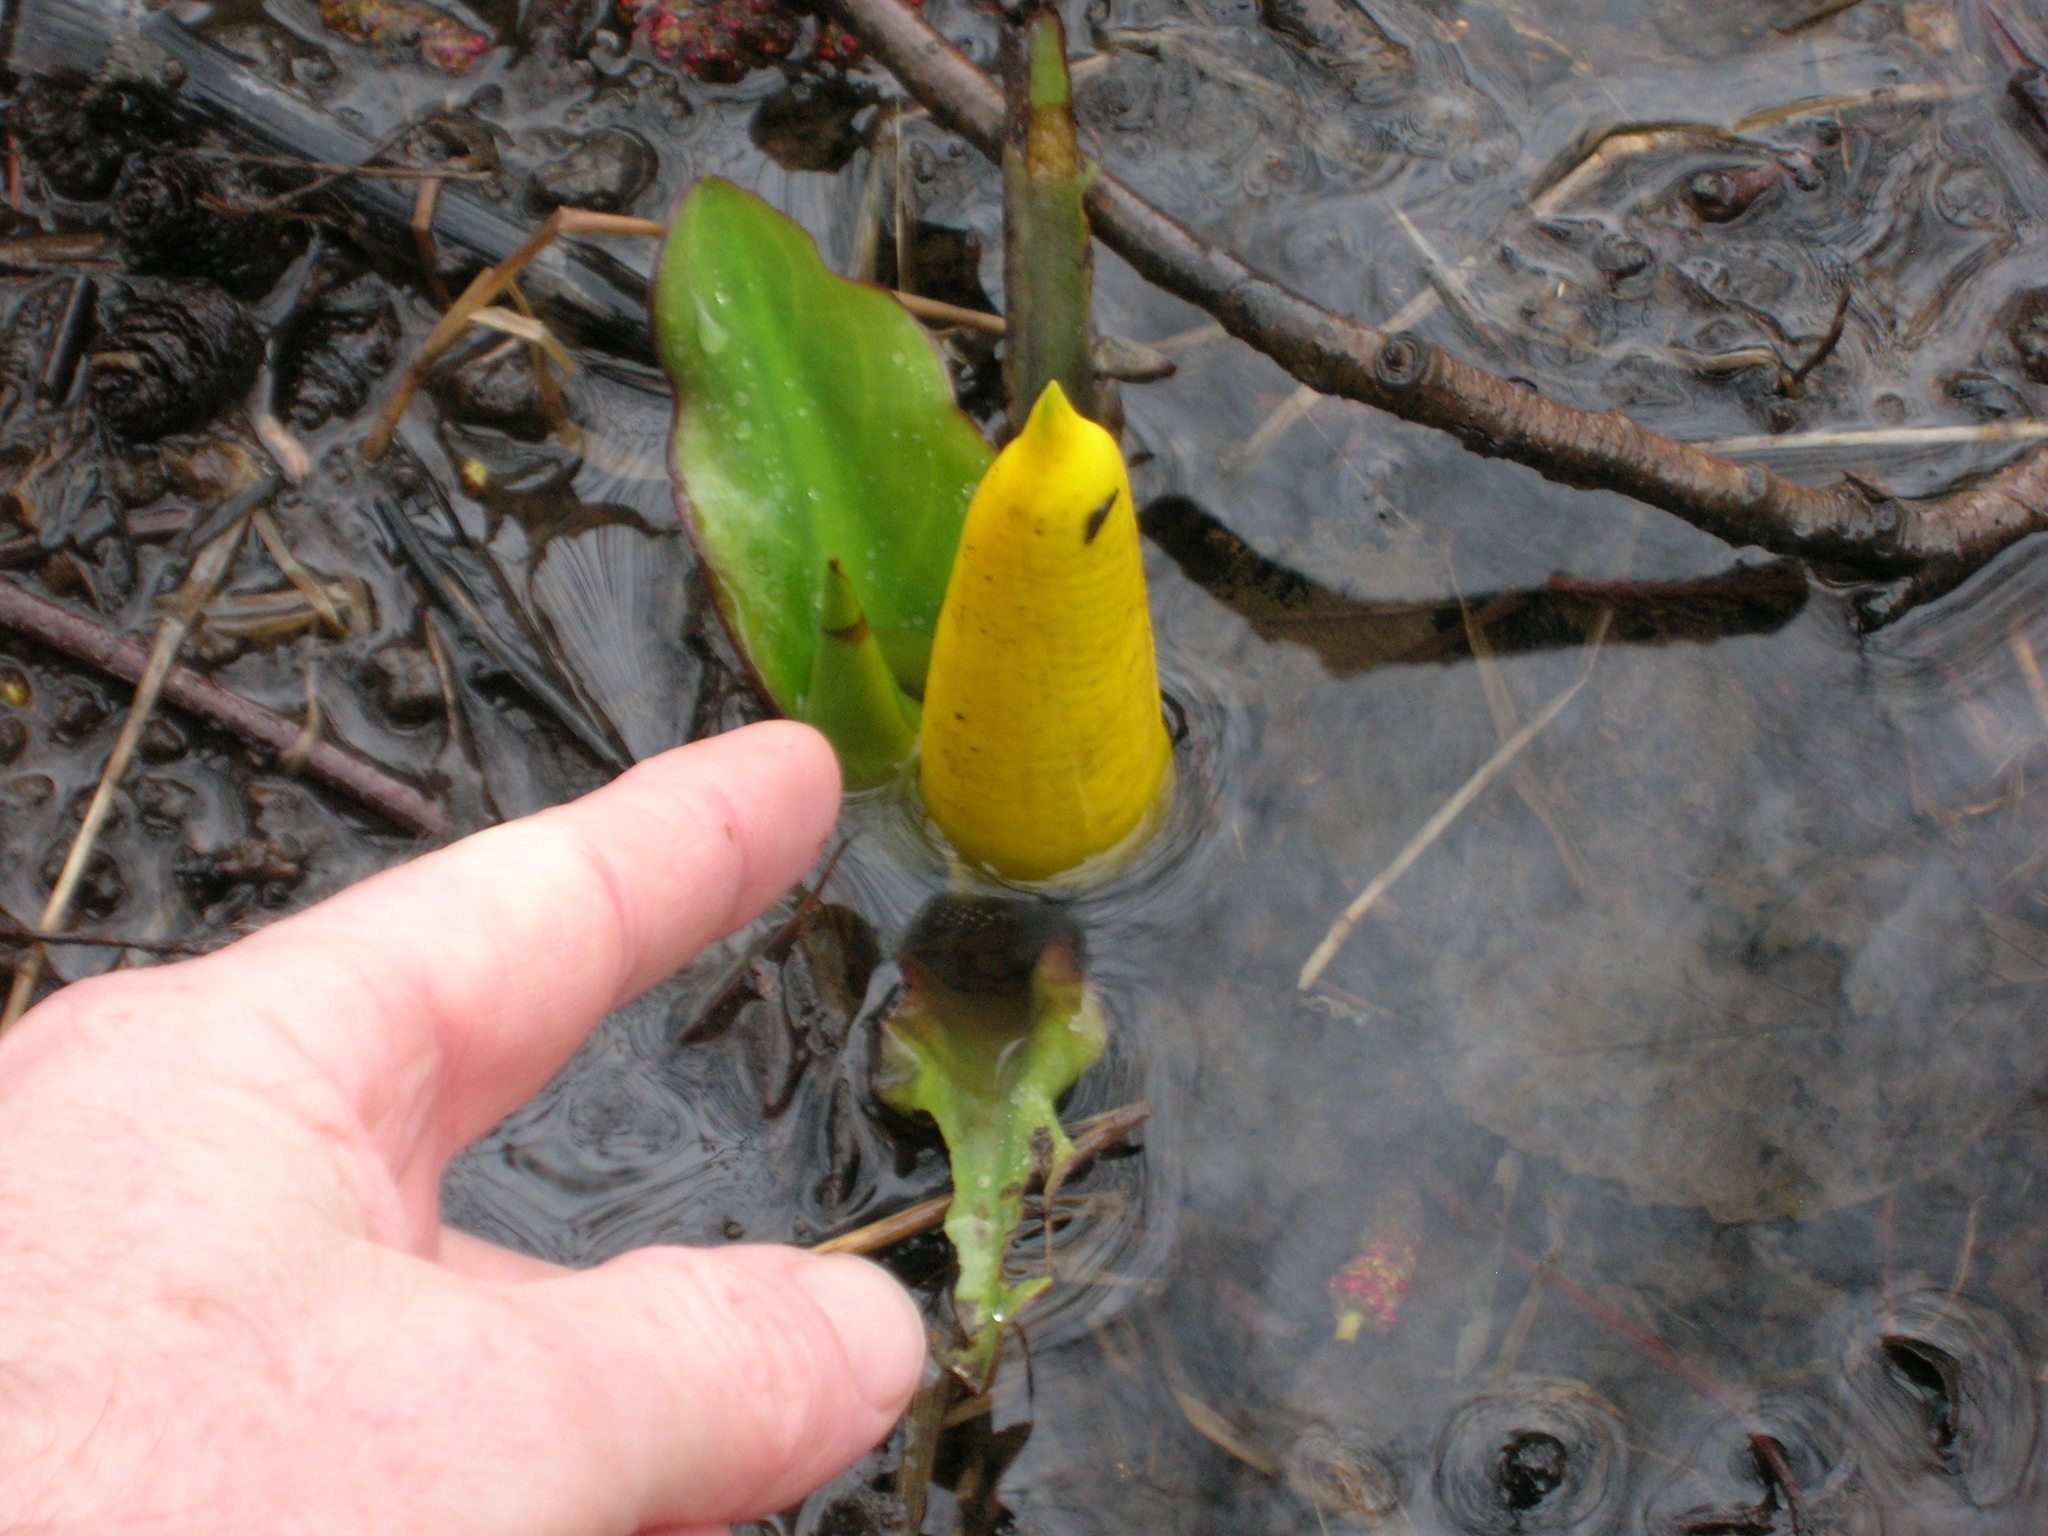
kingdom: Plantae
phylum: Tracheophyta
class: Liliopsida
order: Alismatales
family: Araceae
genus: Lysichiton
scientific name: Lysichiton americanus
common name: American skunk cabbage
